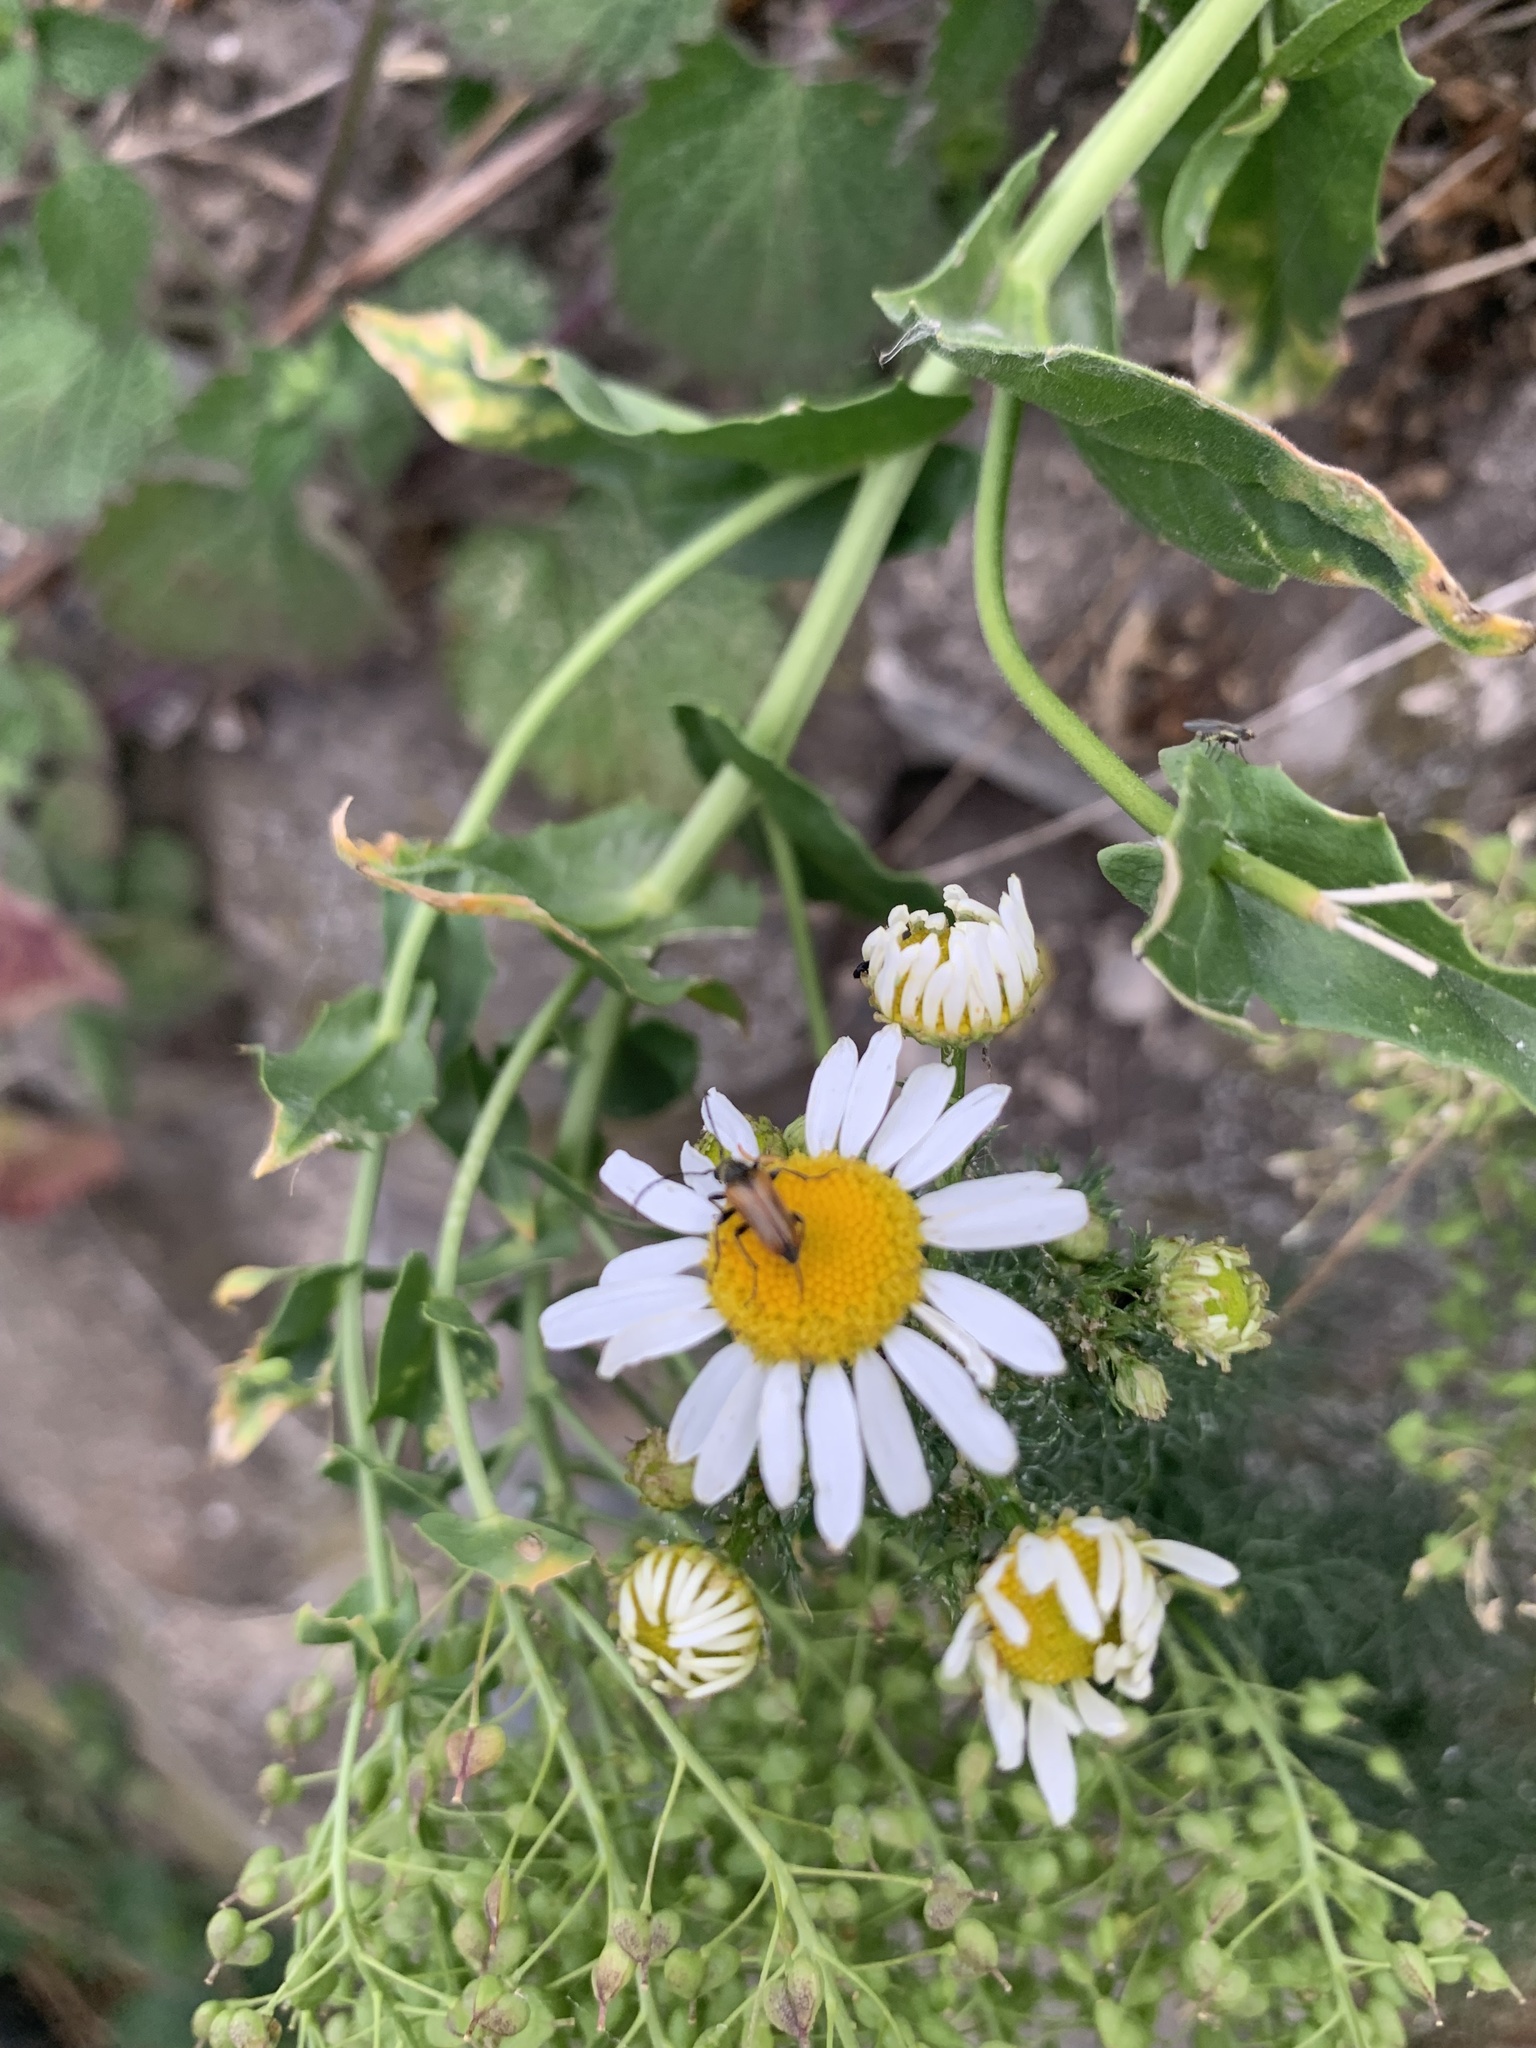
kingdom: Animalia
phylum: Arthropoda
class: Insecta
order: Coleoptera
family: Cerambycidae
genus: Pseudovadonia
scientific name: Pseudovadonia livida
